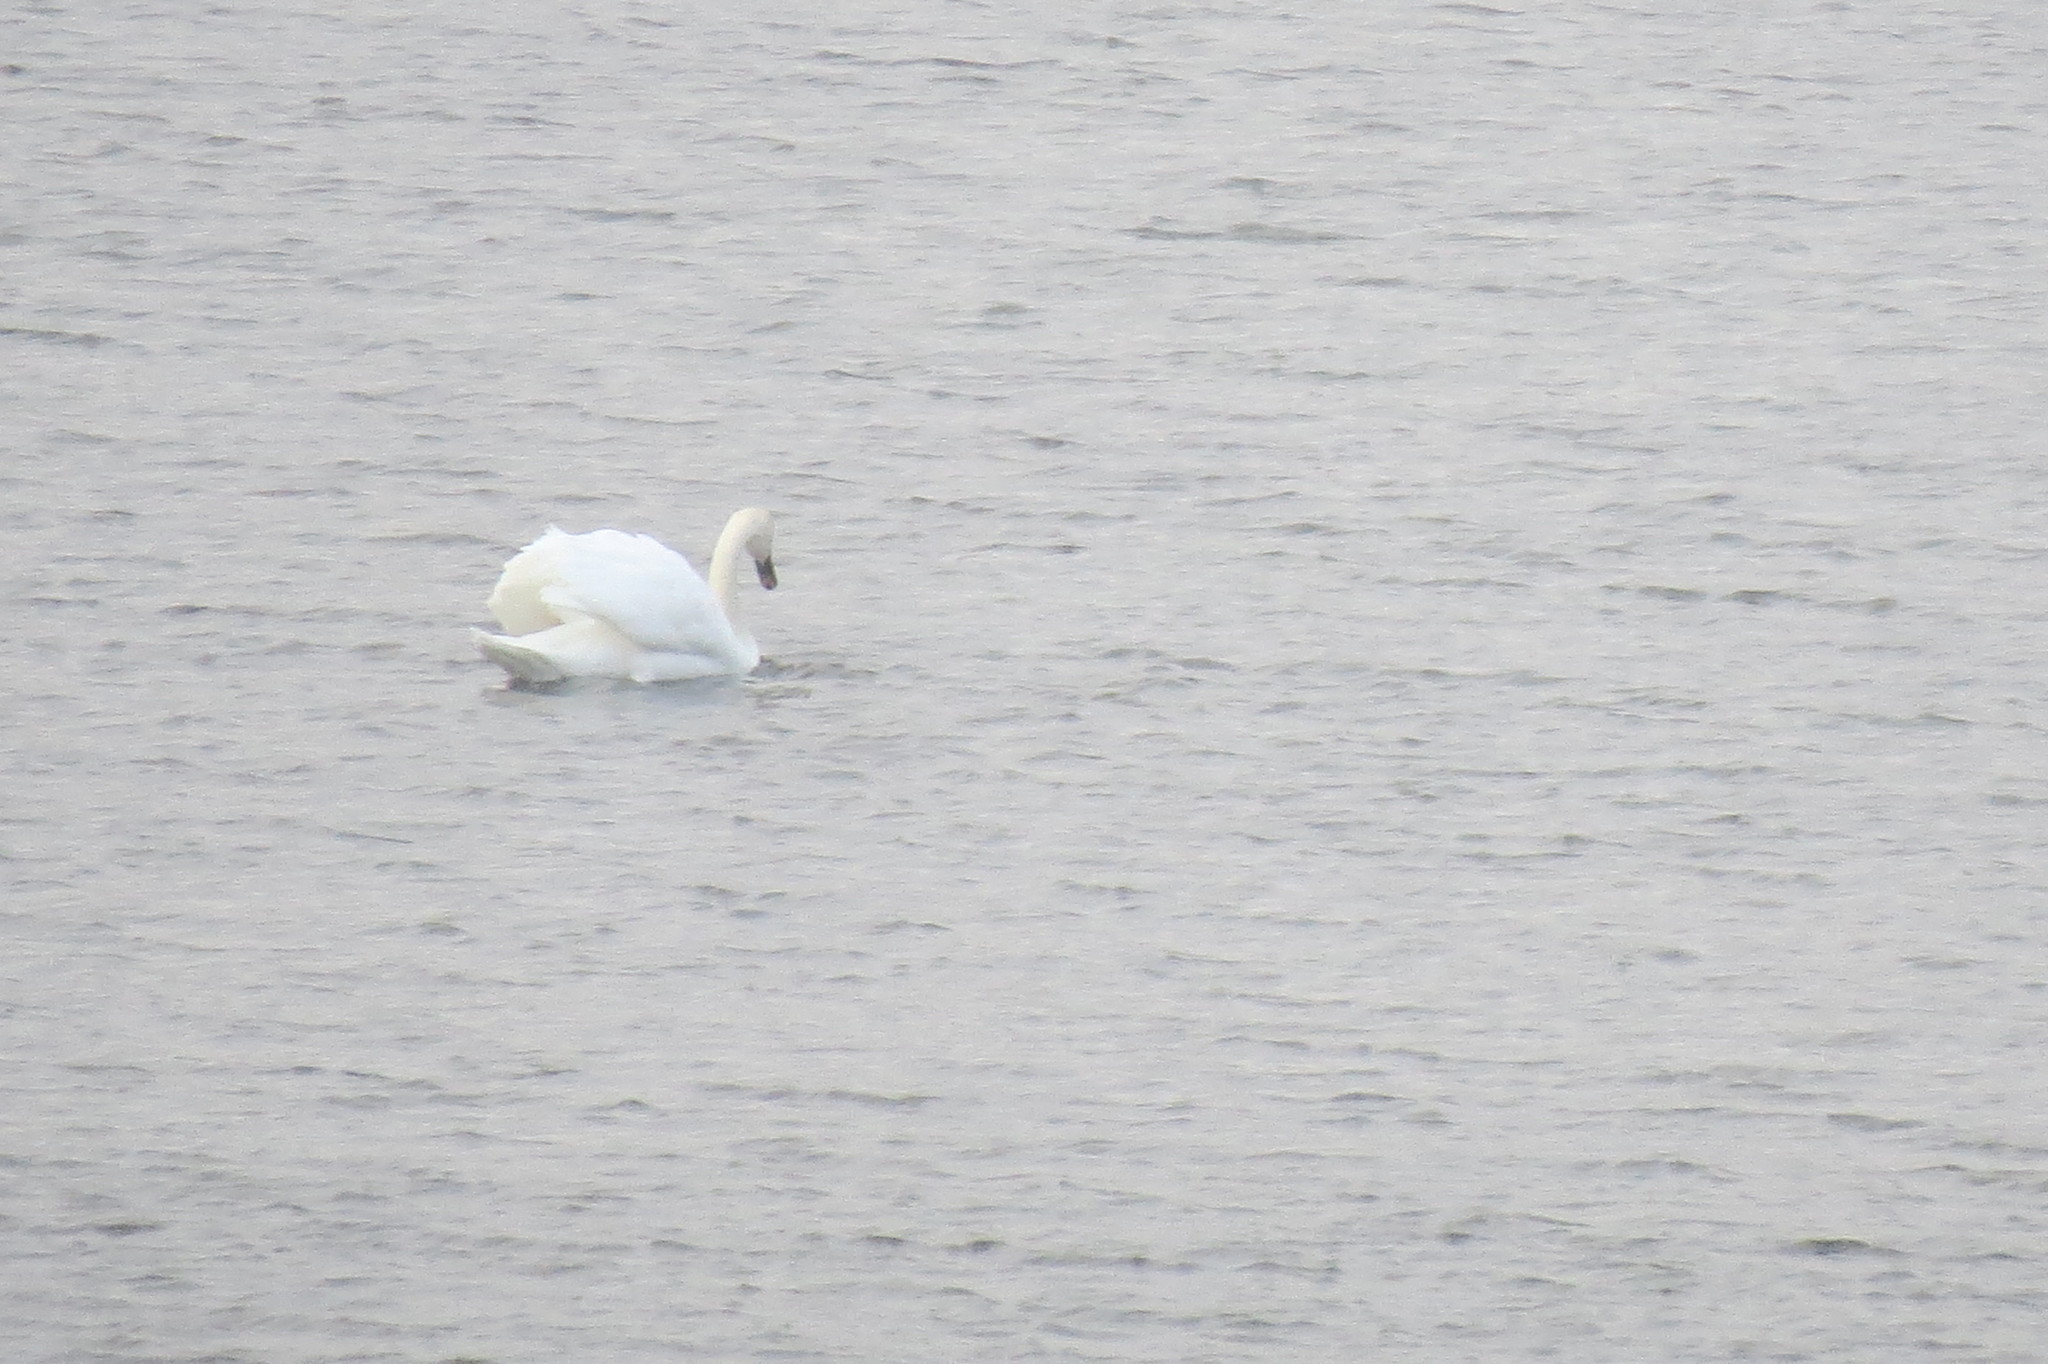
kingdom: Animalia
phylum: Chordata
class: Aves
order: Anseriformes
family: Anatidae
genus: Cygnus
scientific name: Cygnus olor
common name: Mute swan
